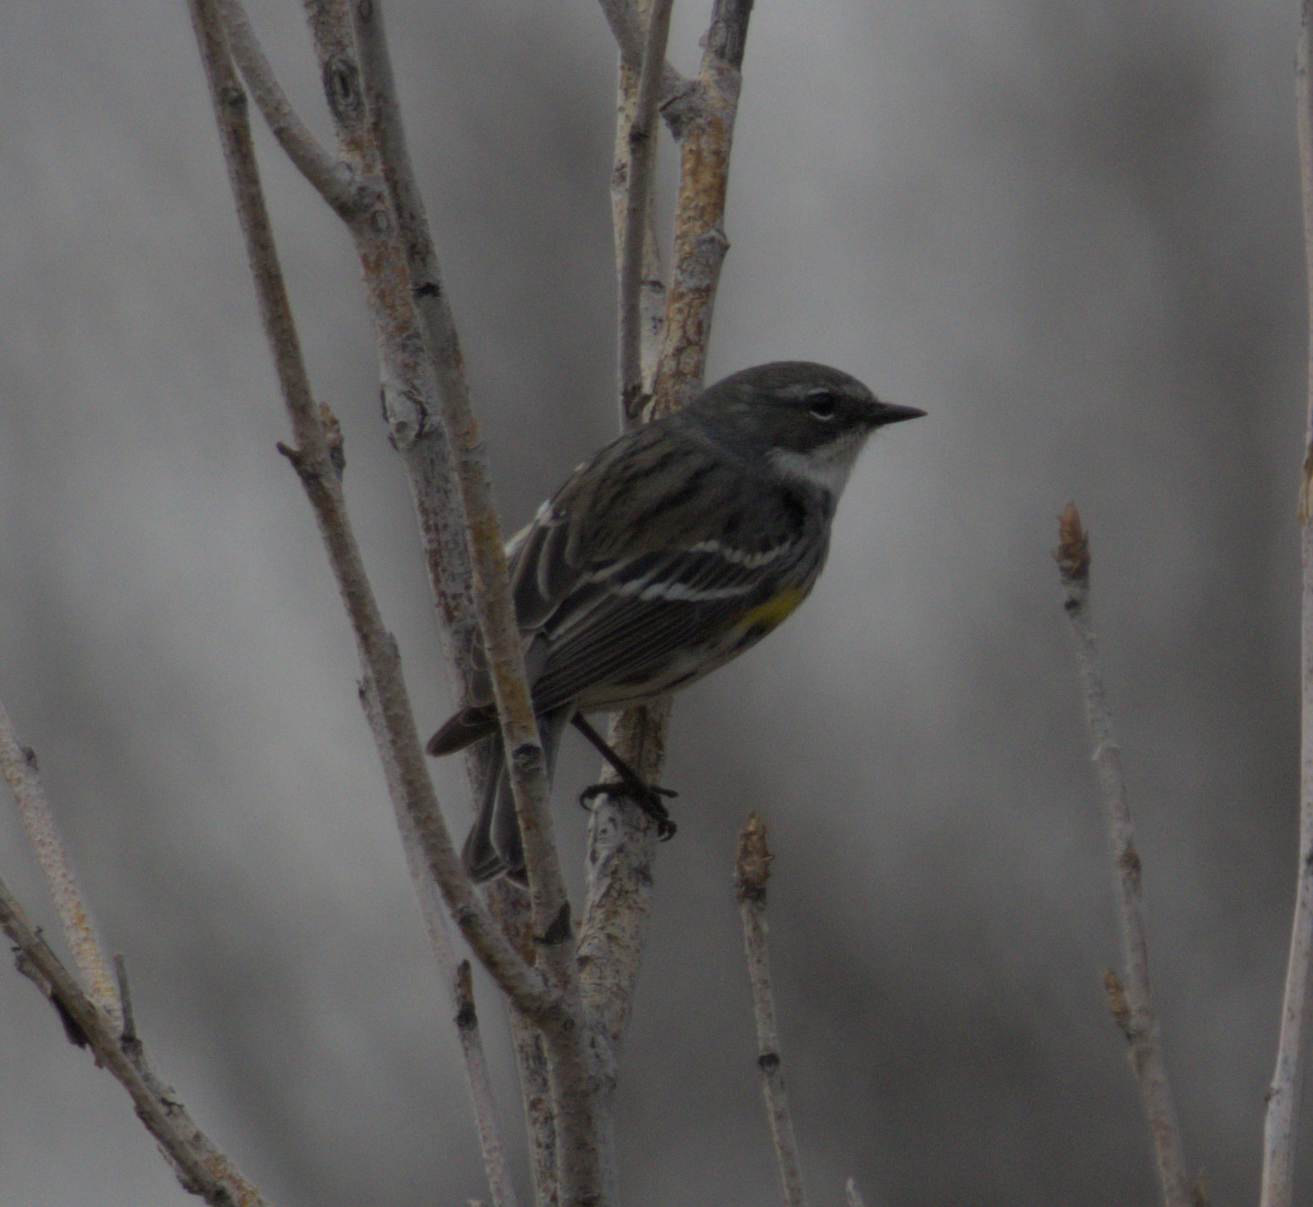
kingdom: Animalia
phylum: Chordata
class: Aves
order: Passeriformes
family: Parulidae
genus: Setophaga
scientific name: Setophaga coronata
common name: Myrtle warbler
